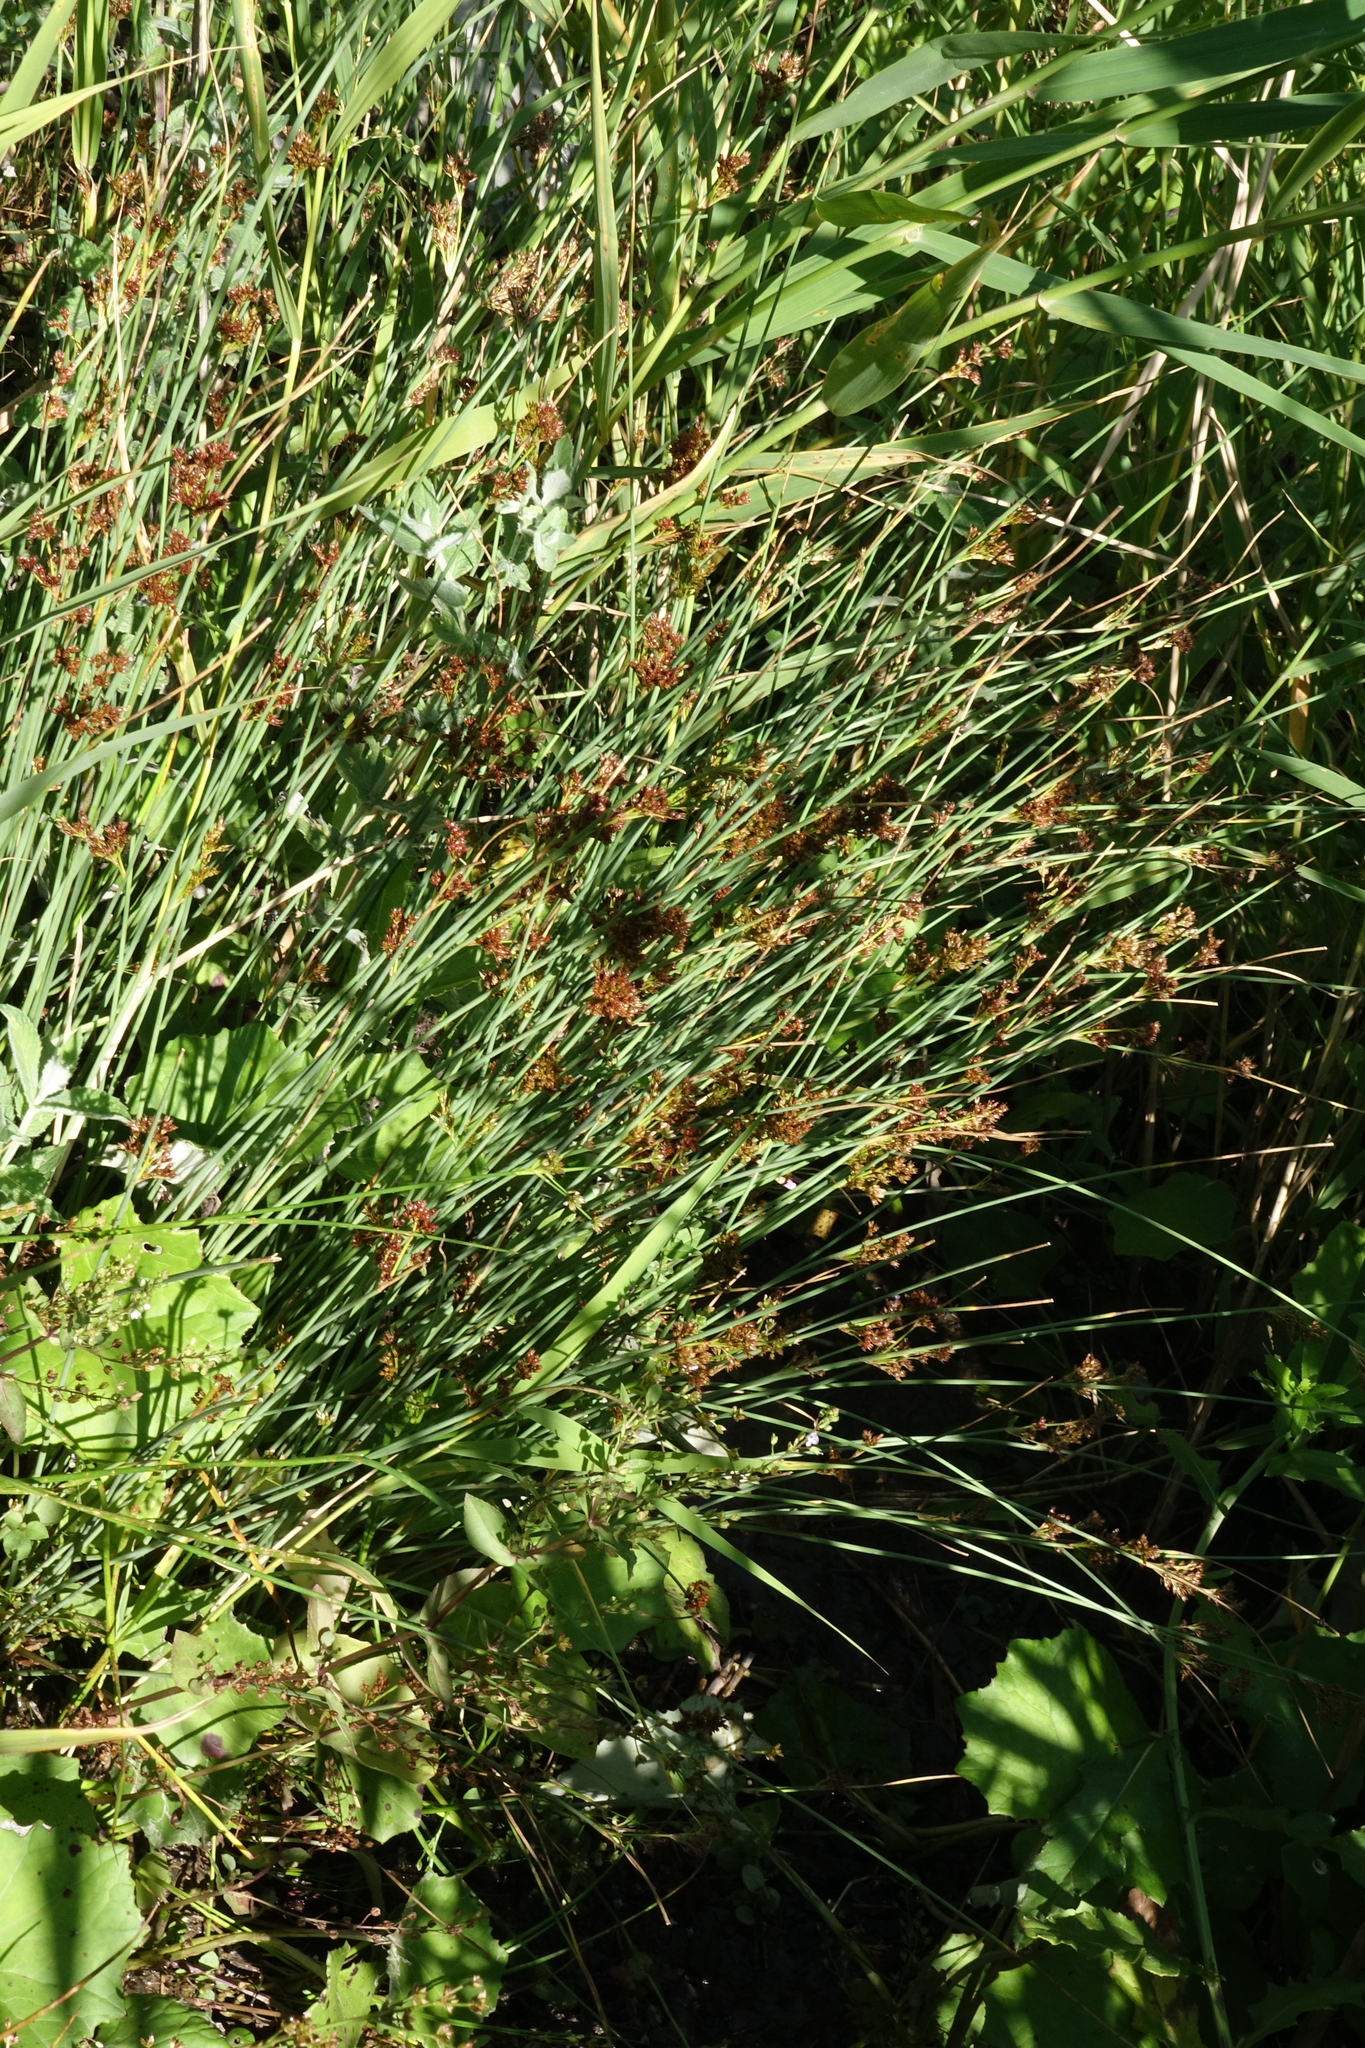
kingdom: Plantae
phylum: Tracheophyta
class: Liliopsida
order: Poales
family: Juncaceae
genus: Juncus
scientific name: Juncus inflexus
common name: Hard rush
